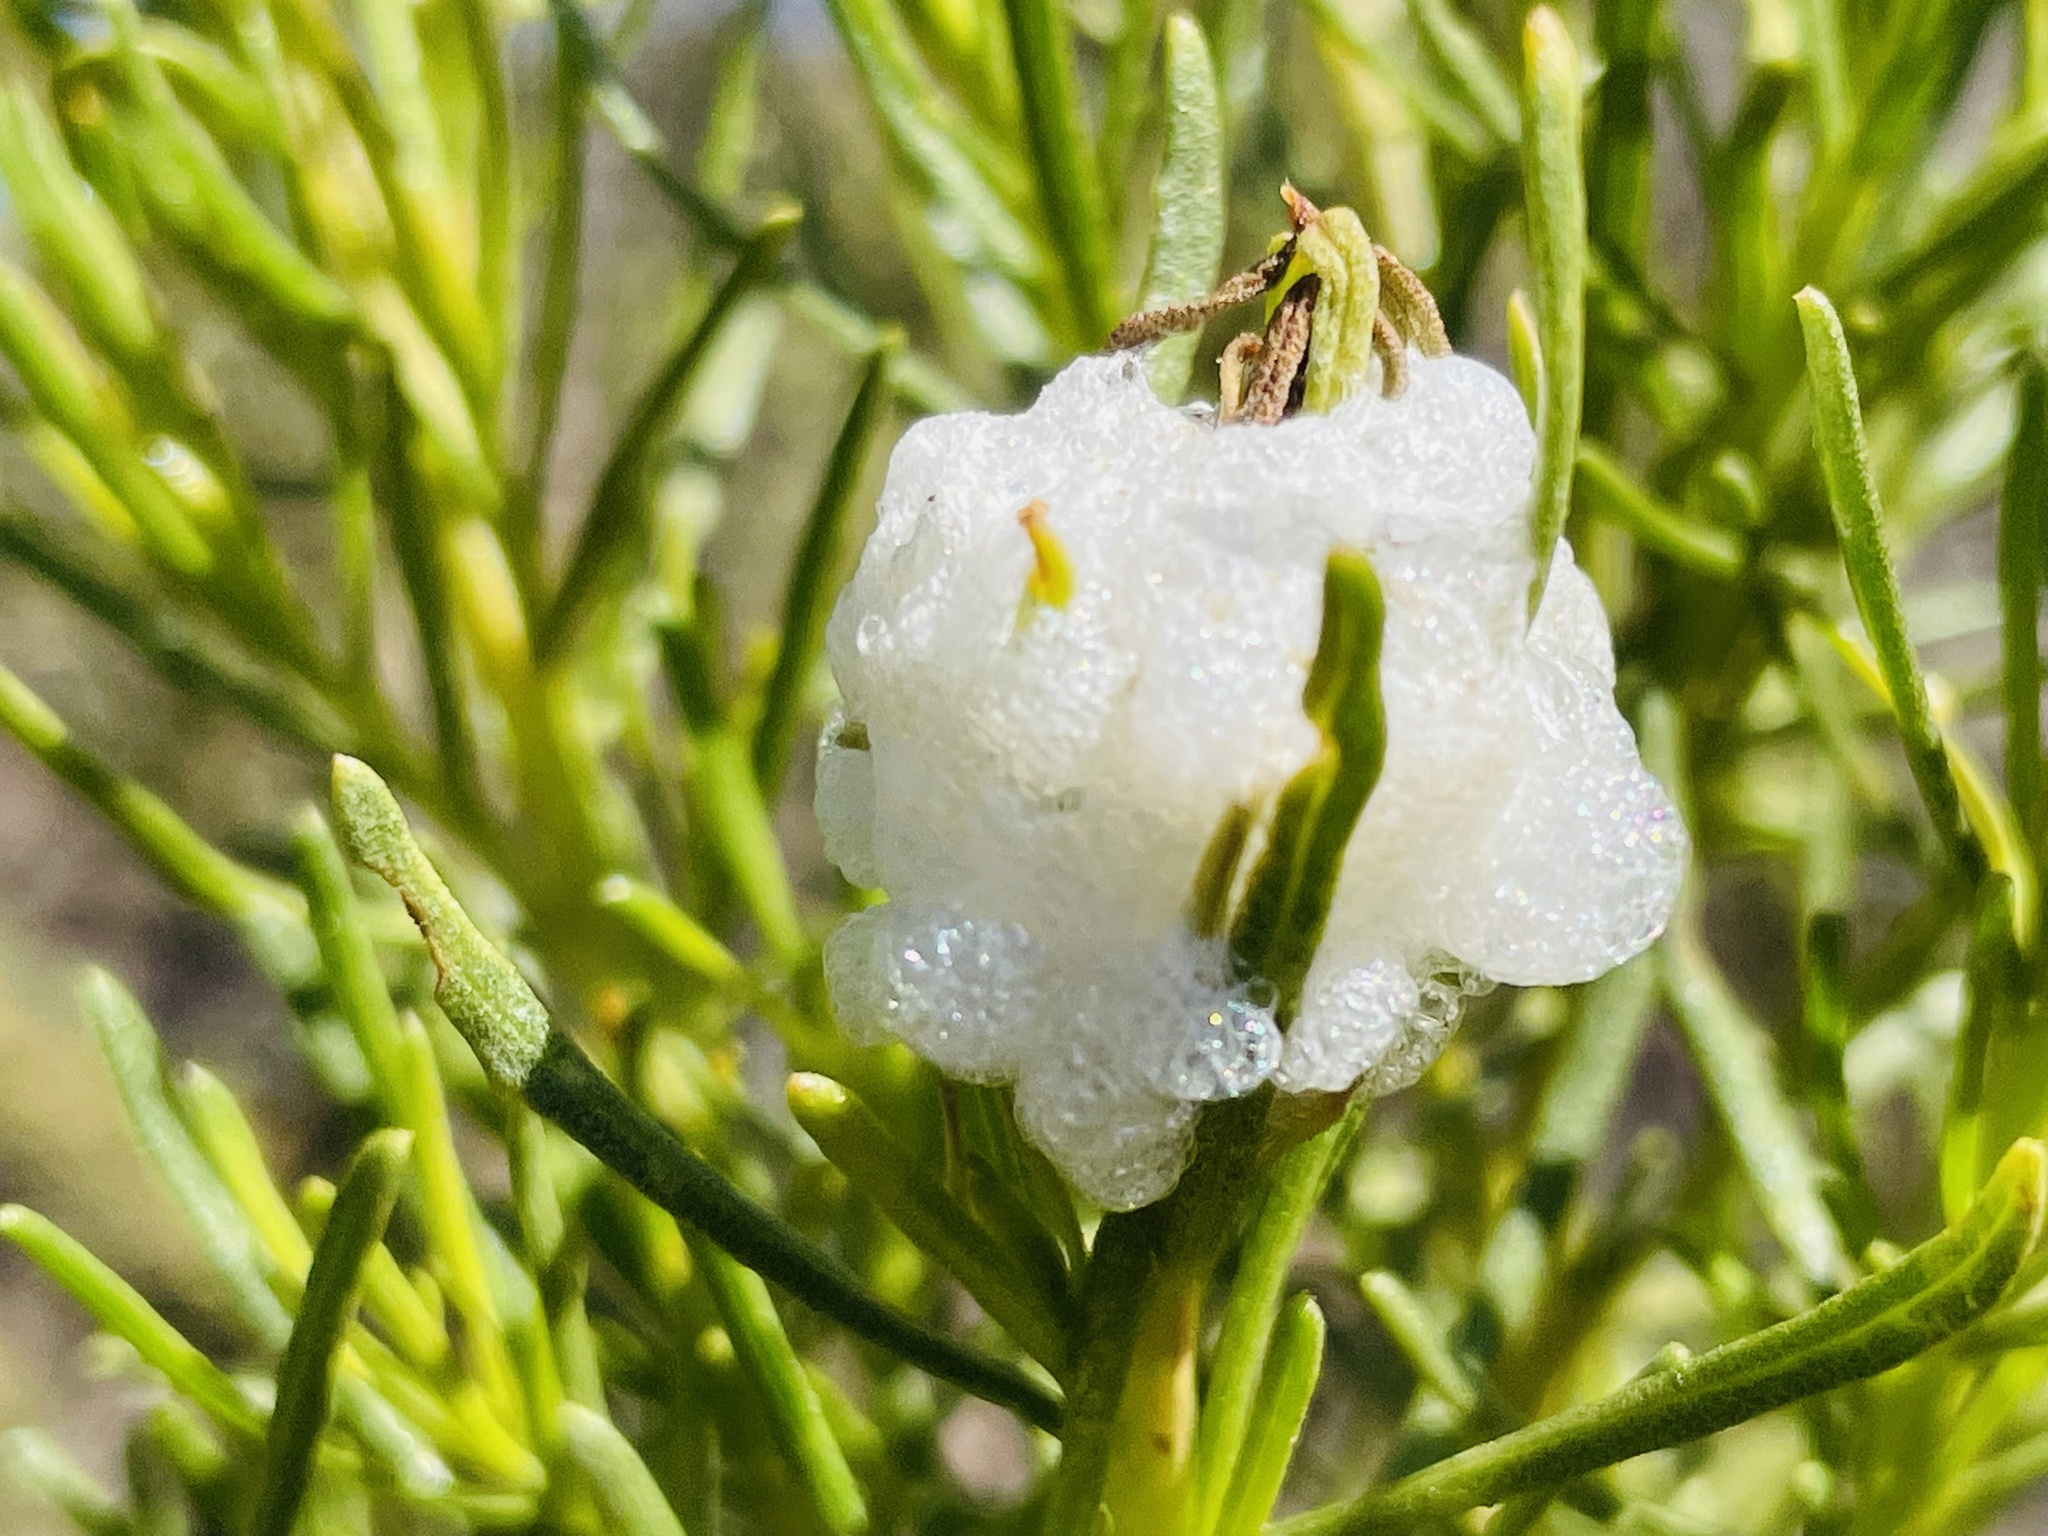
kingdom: Animalia
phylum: Arthropoda
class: Insecta
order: Diptera
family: Tephritidae
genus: Rachiptera
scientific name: Rachiptera limbata
